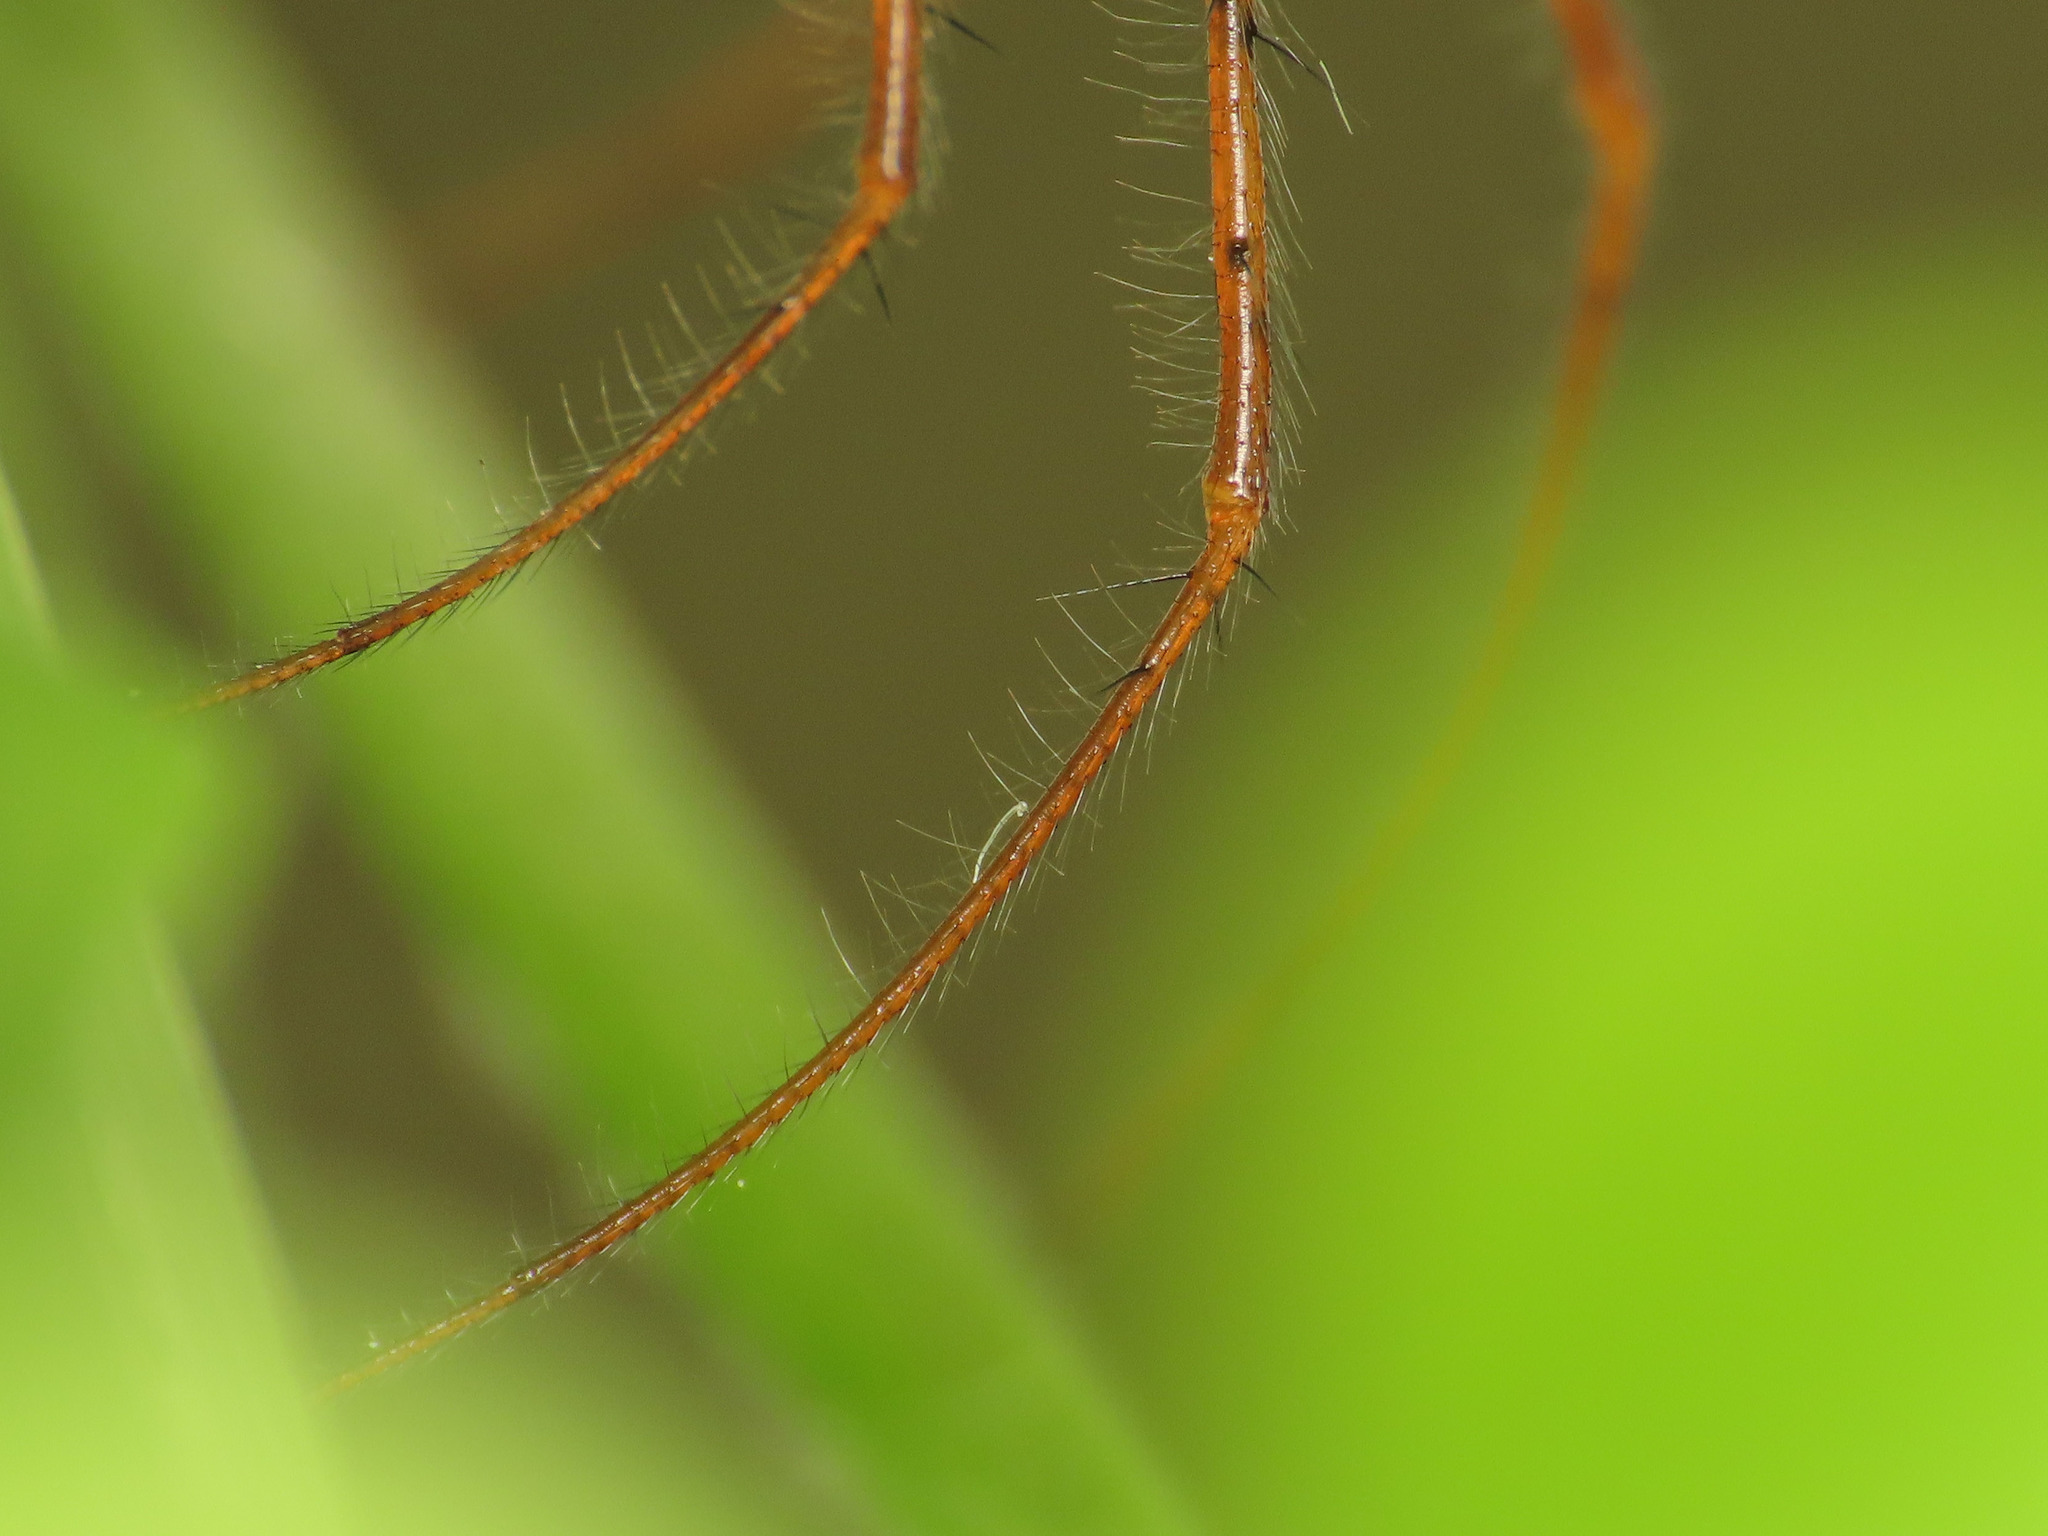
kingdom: Animalia
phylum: Arthropoda
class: Arachnida
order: Araneae
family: Tetragnathidae
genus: Metellina
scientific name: Metellina mengei
